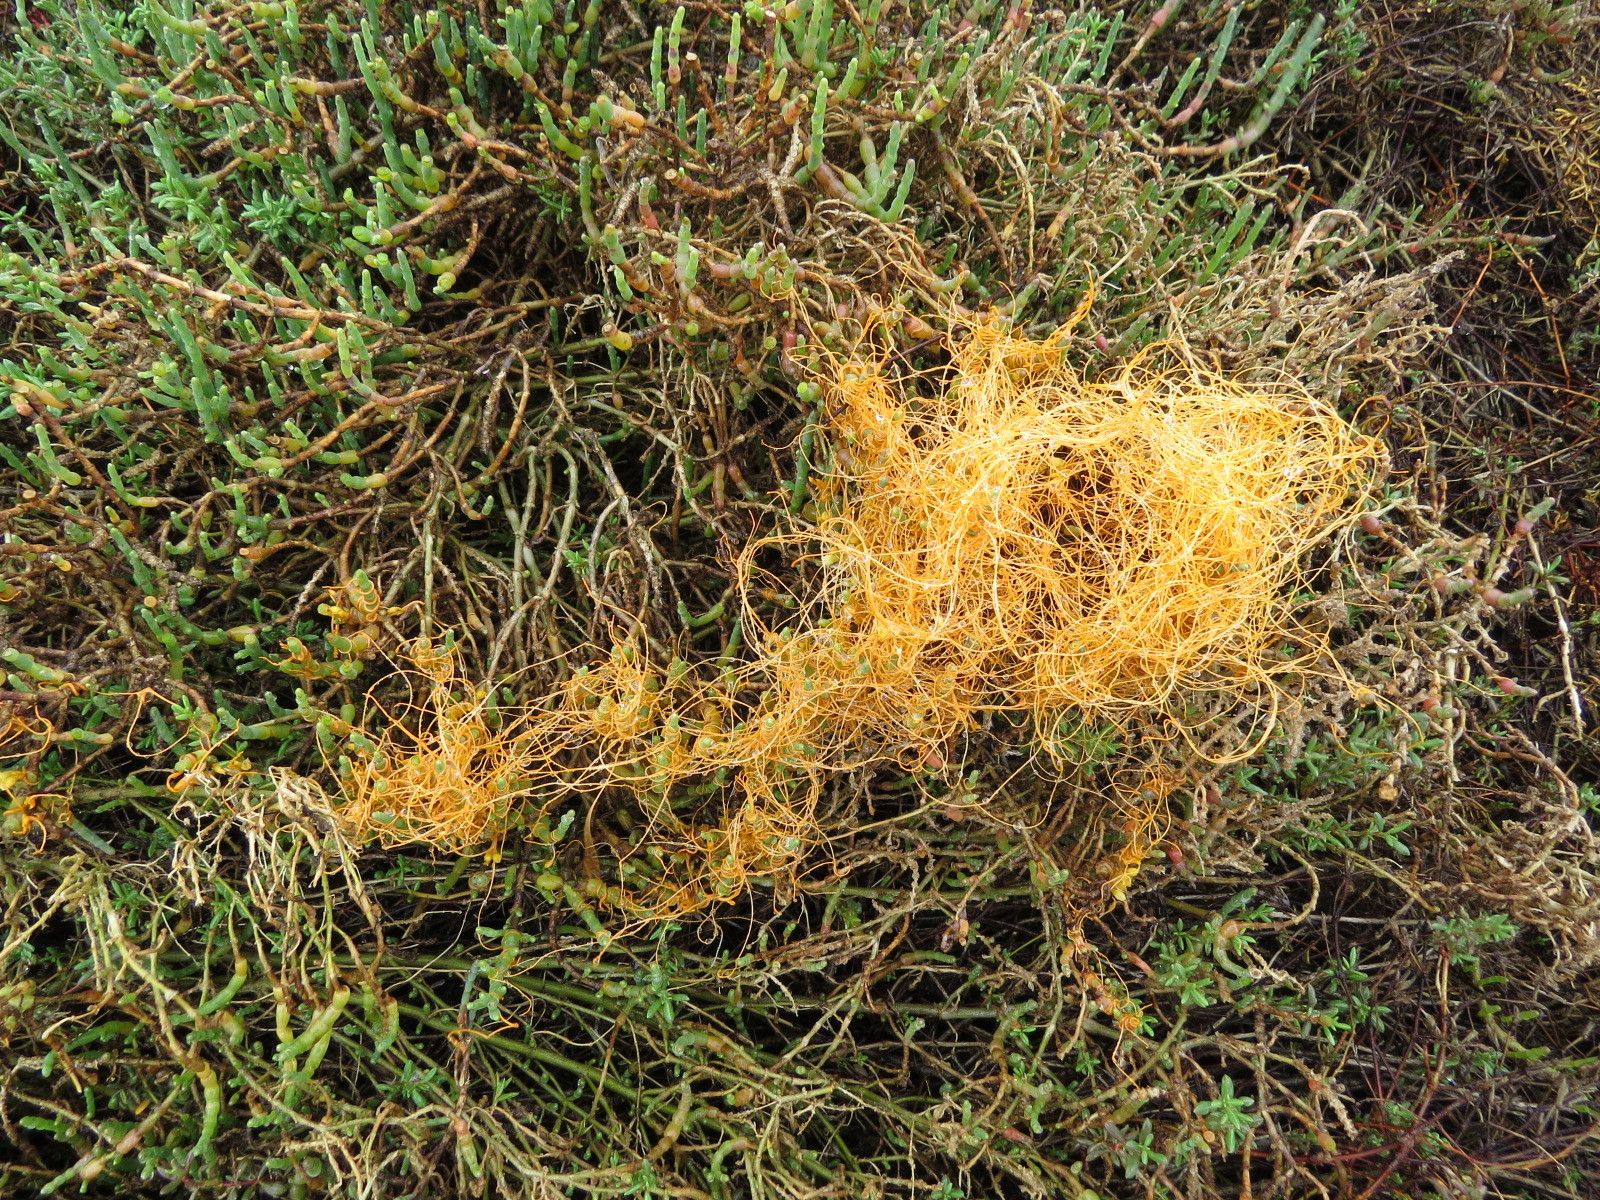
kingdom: Plantae
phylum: Tracheophyta
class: Magnoliopsida
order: Solanales
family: Convolvulaceae
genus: Cuscuta
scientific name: Cuscuta pacifica
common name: Large saltmarsh dodder
